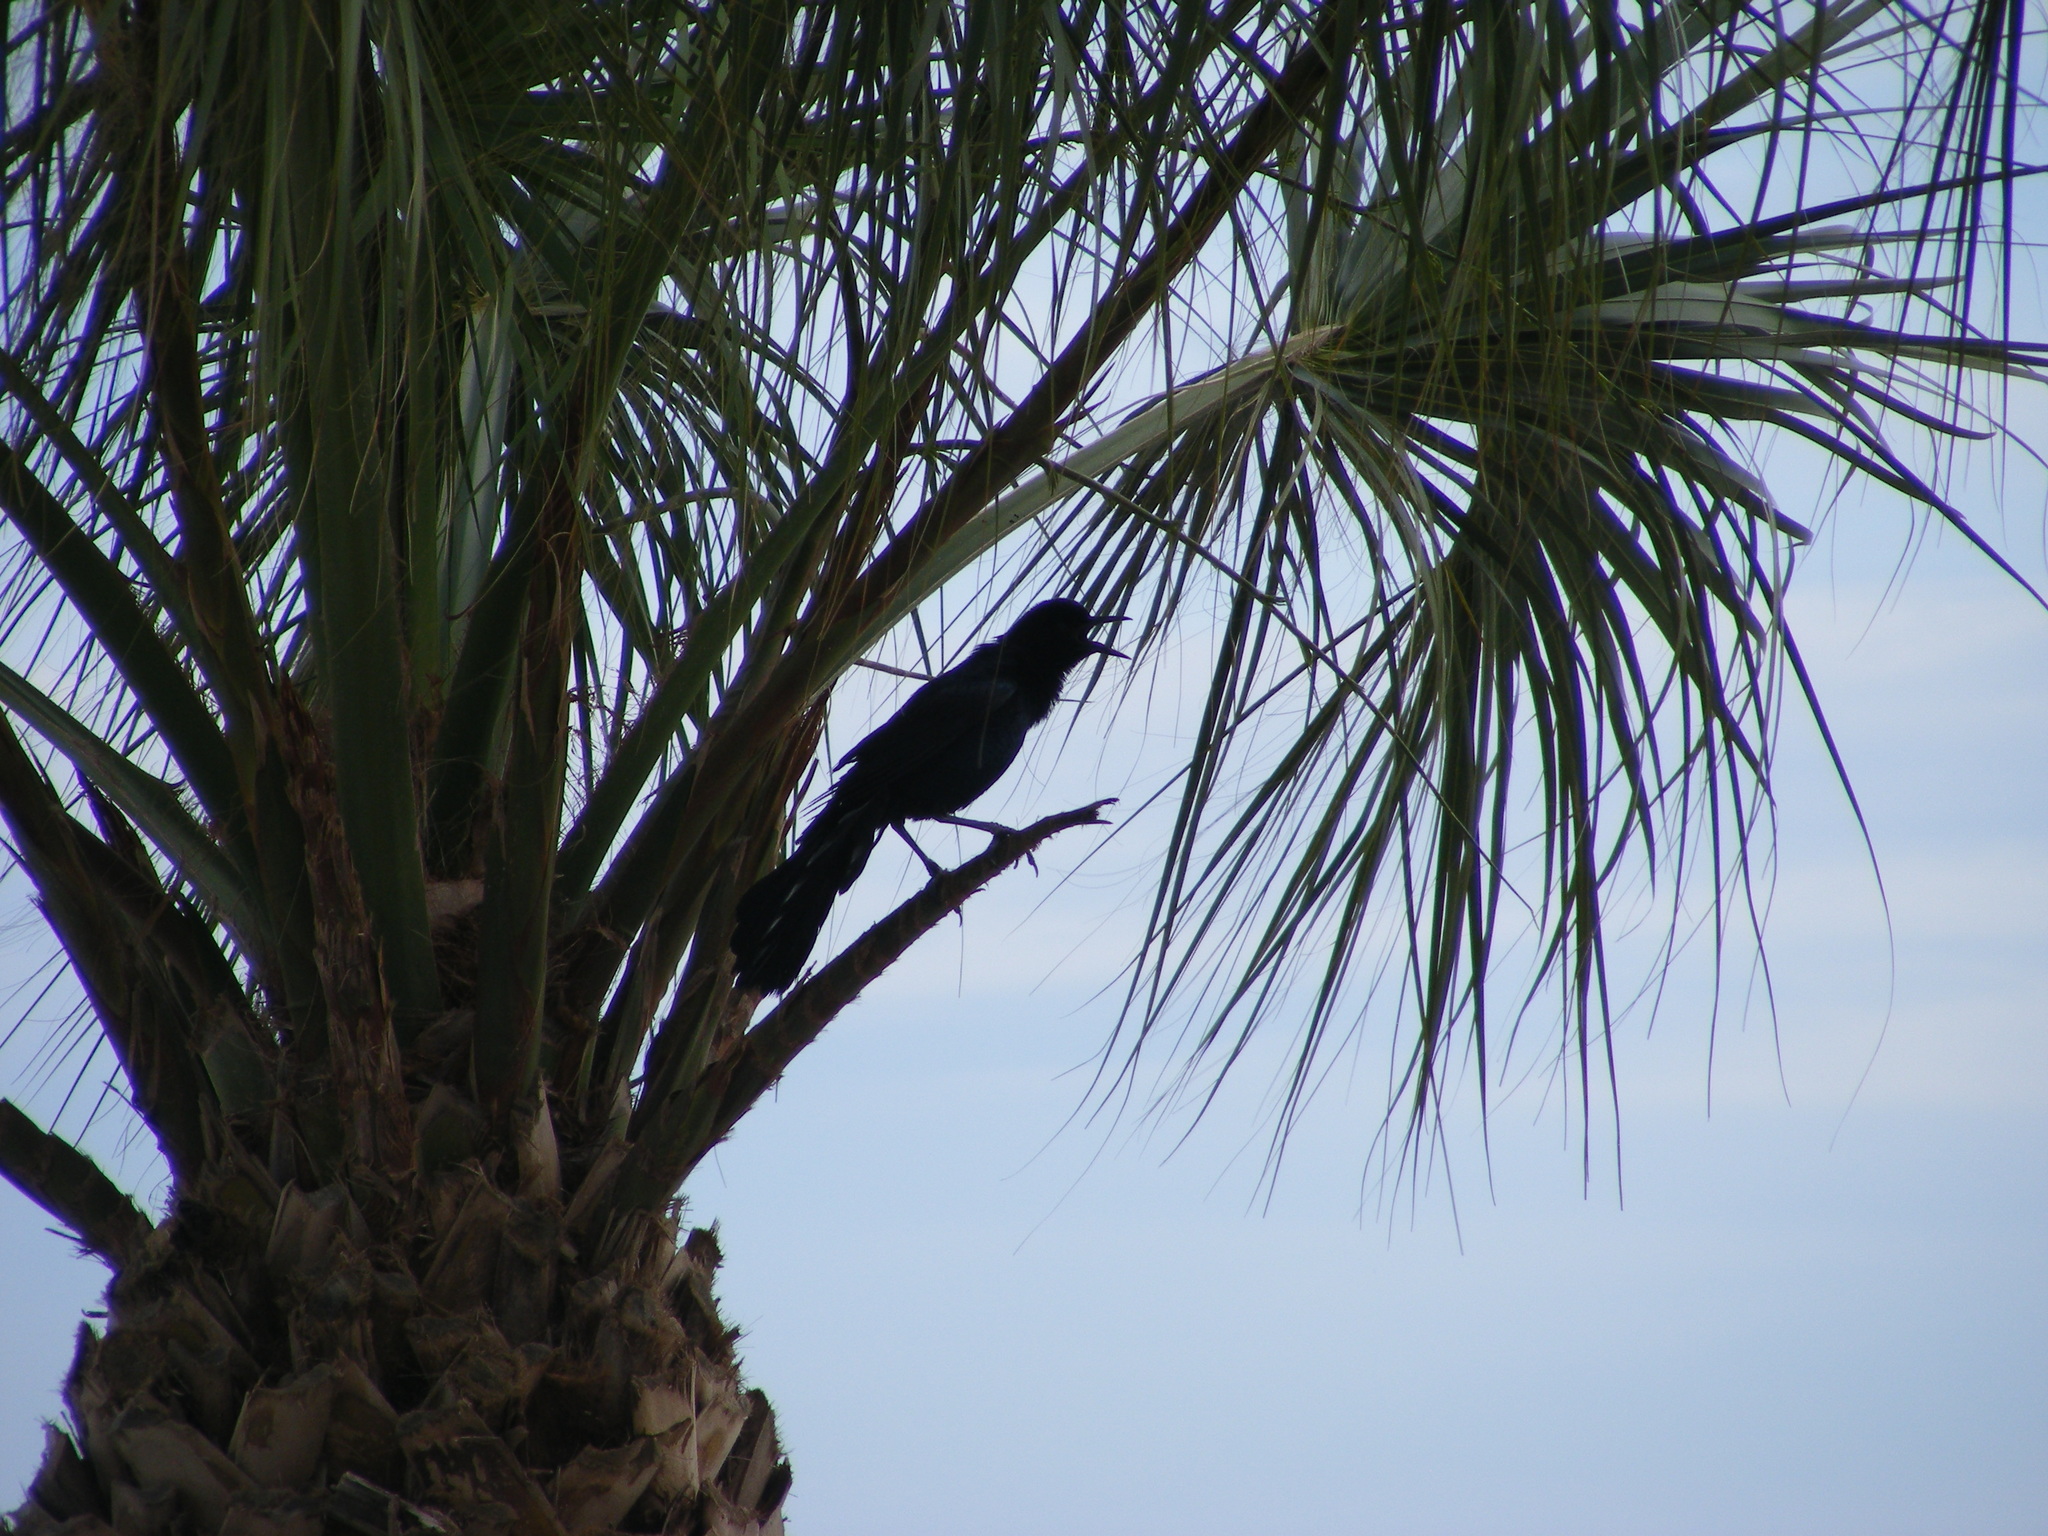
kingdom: Animalia
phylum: Chordata
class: Aves
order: Passeriformes
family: Icteridae
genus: Quiscalus
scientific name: Quiscalus major
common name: Boat-tailed grackle
